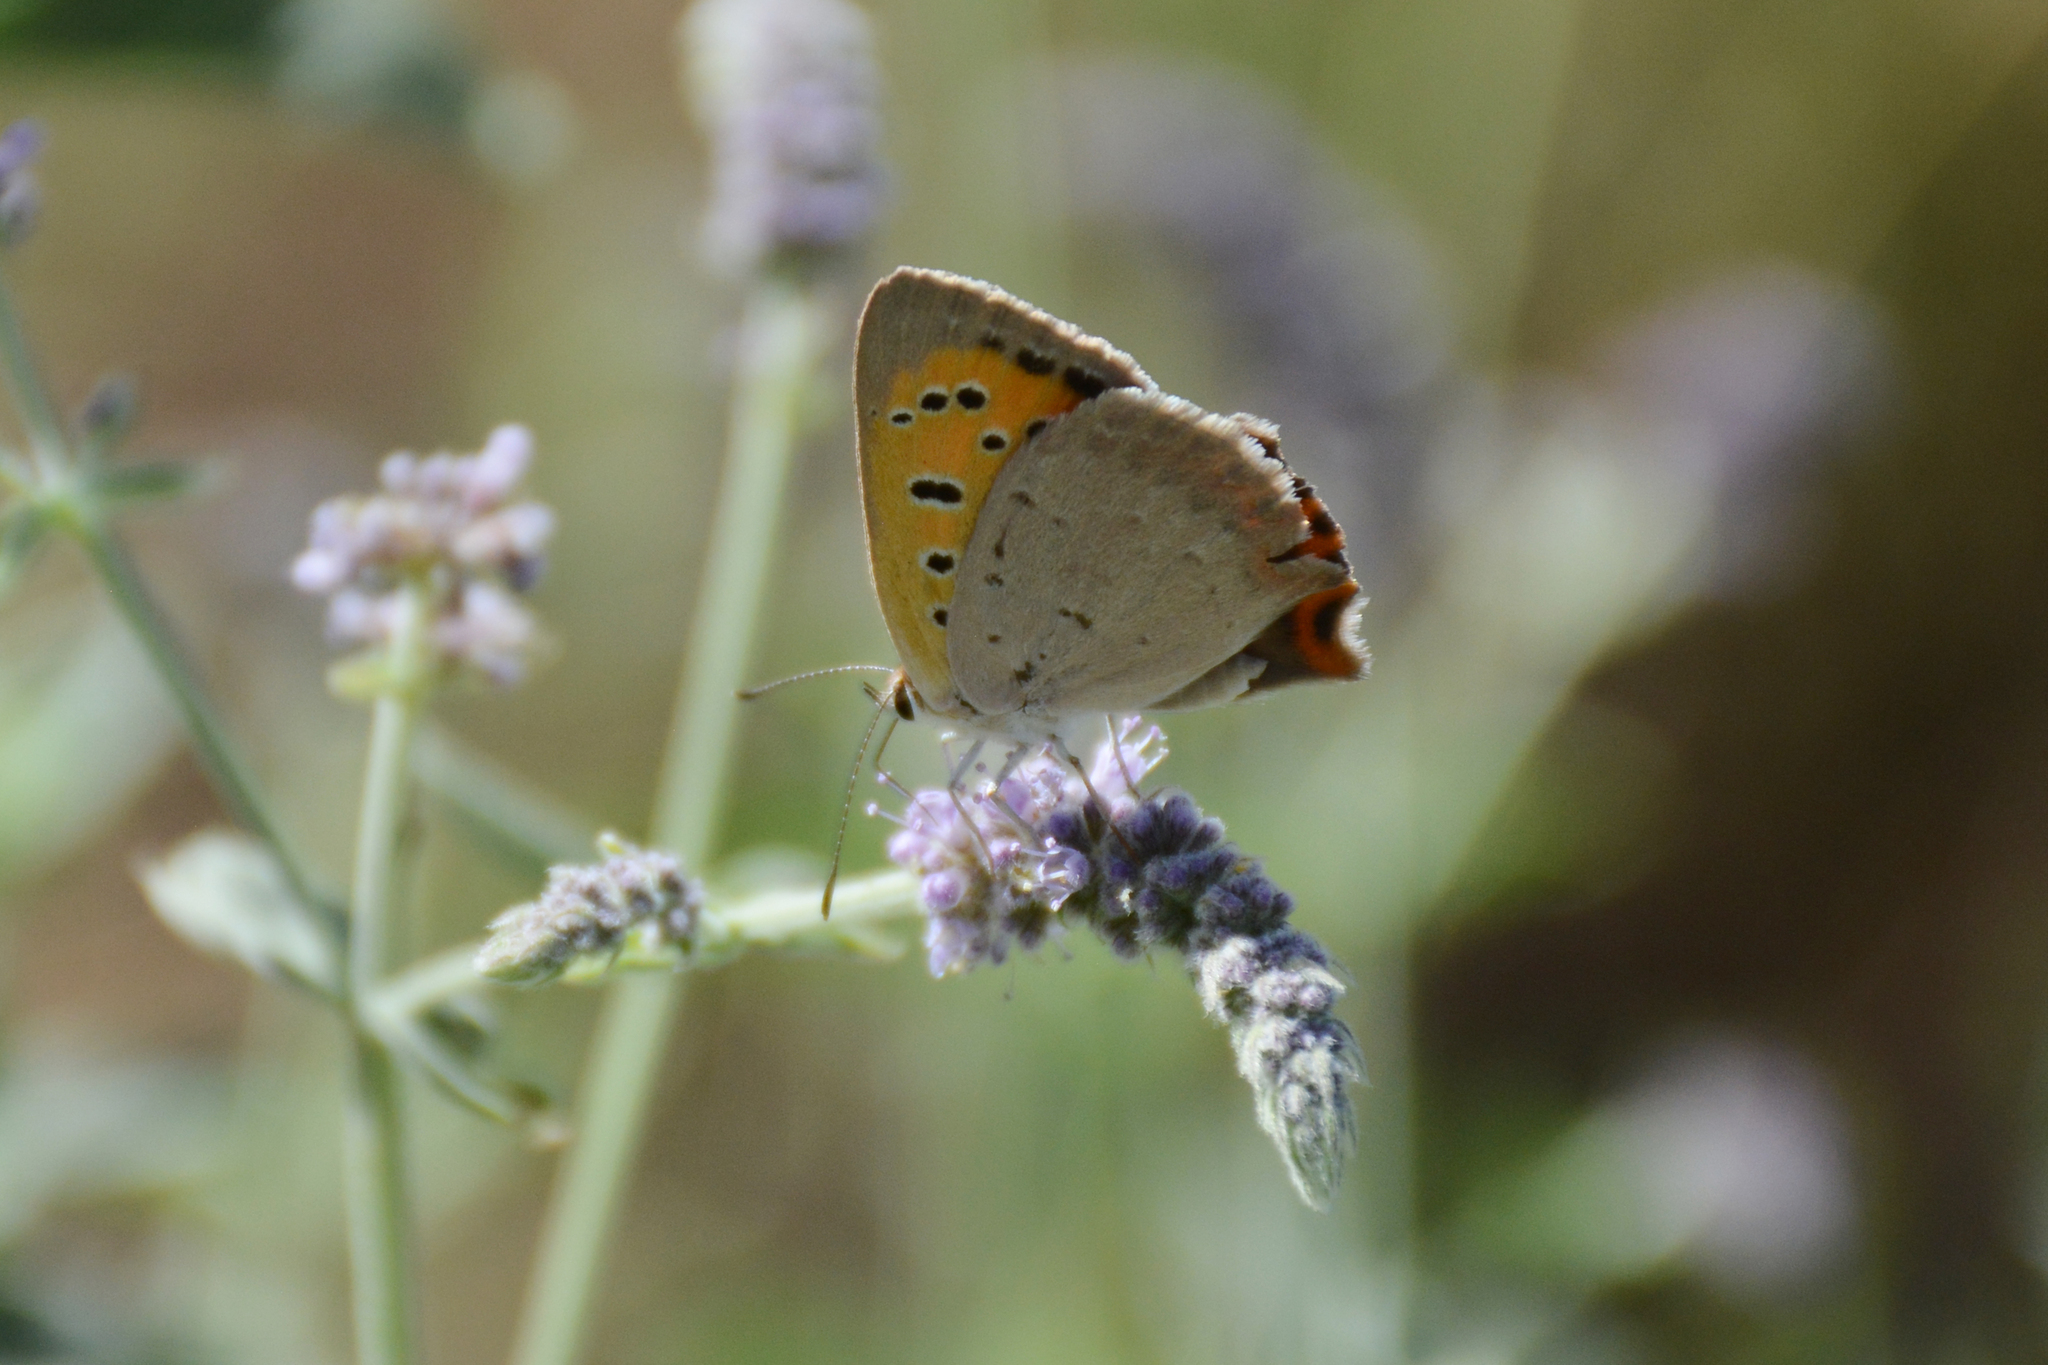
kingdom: Animalia
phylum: Arthropoda
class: Insecta
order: Lepidoptera
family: Lycaenidae
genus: Lycaena
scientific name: Lycaena phlaeas
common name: Small copper
